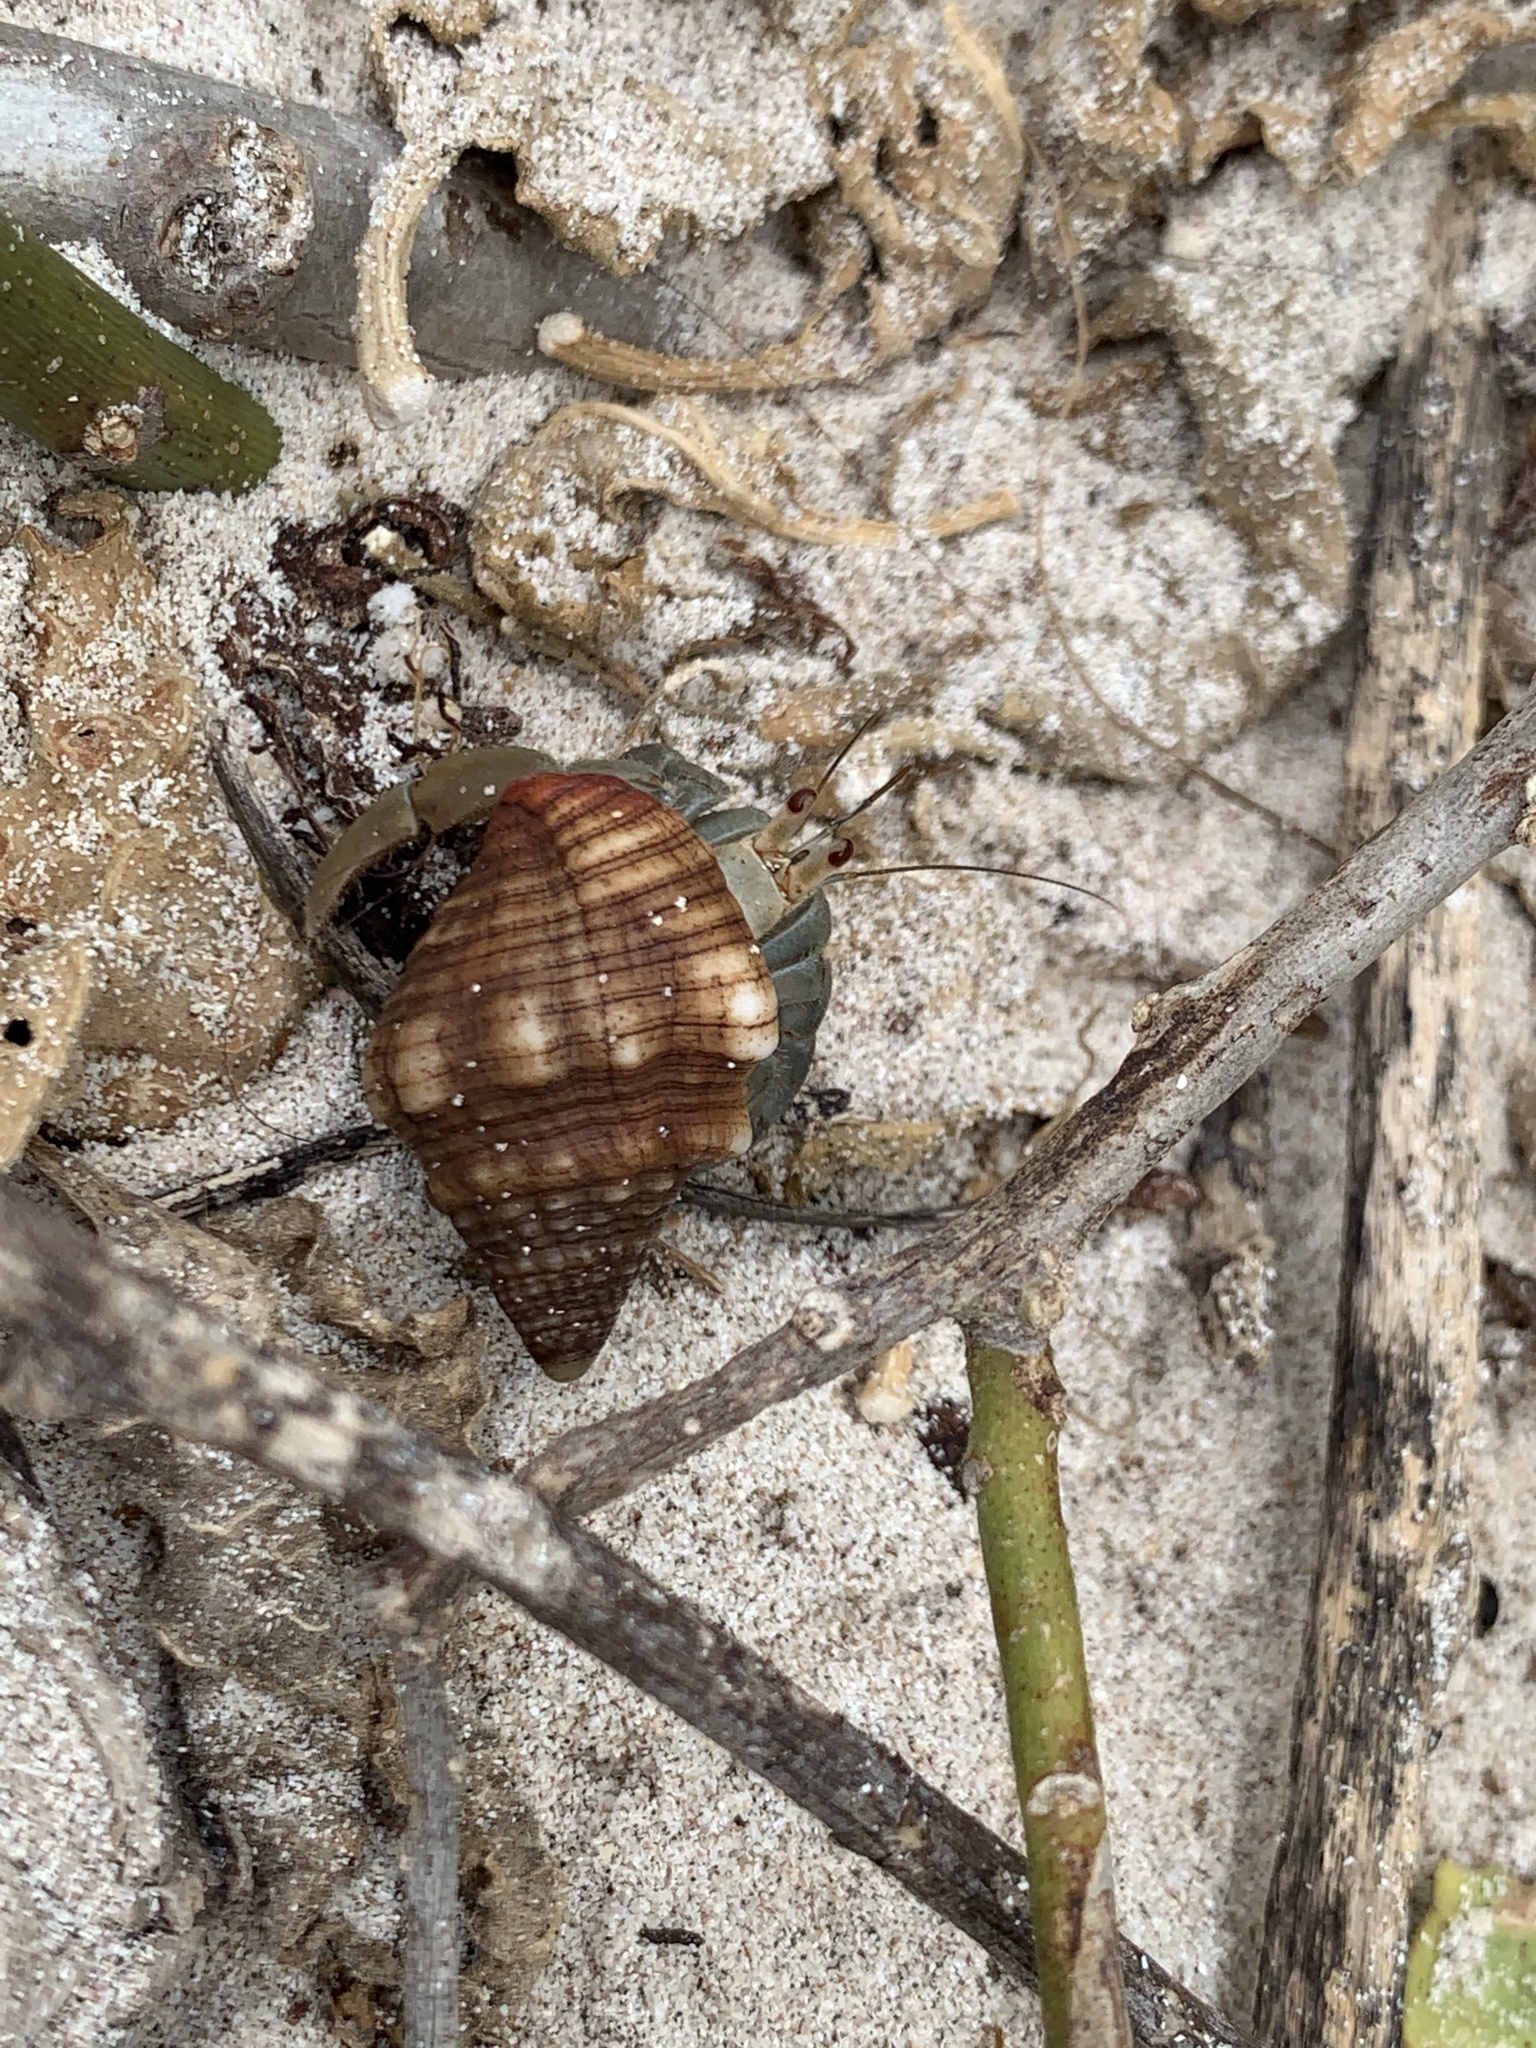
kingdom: Animalia
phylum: Arthropoda
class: Malacostraca
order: Decapoda
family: Coenobitidae
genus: Coenobita
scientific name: Coenobita compressus
